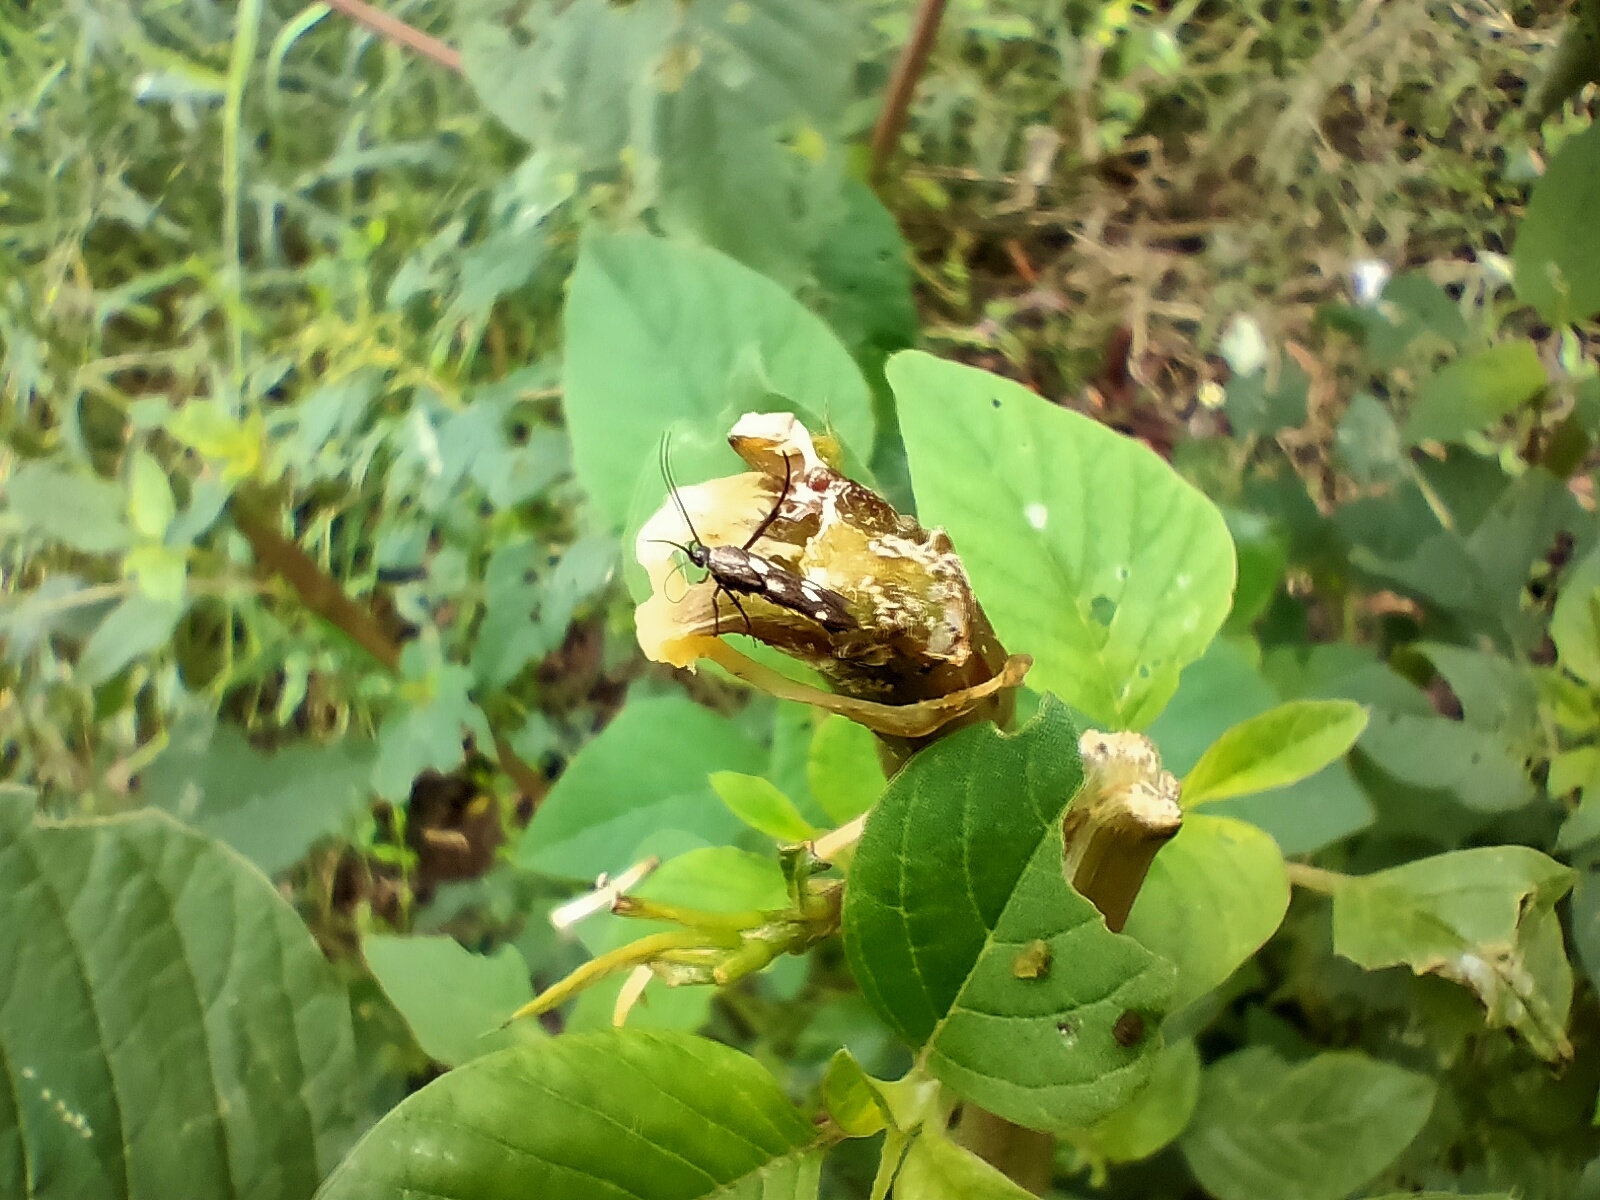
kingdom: Animalia
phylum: Arthropoda
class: Insecta
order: Lepidoptera
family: Scythrididae
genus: Eretmocera
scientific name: Eretmocera impactella
